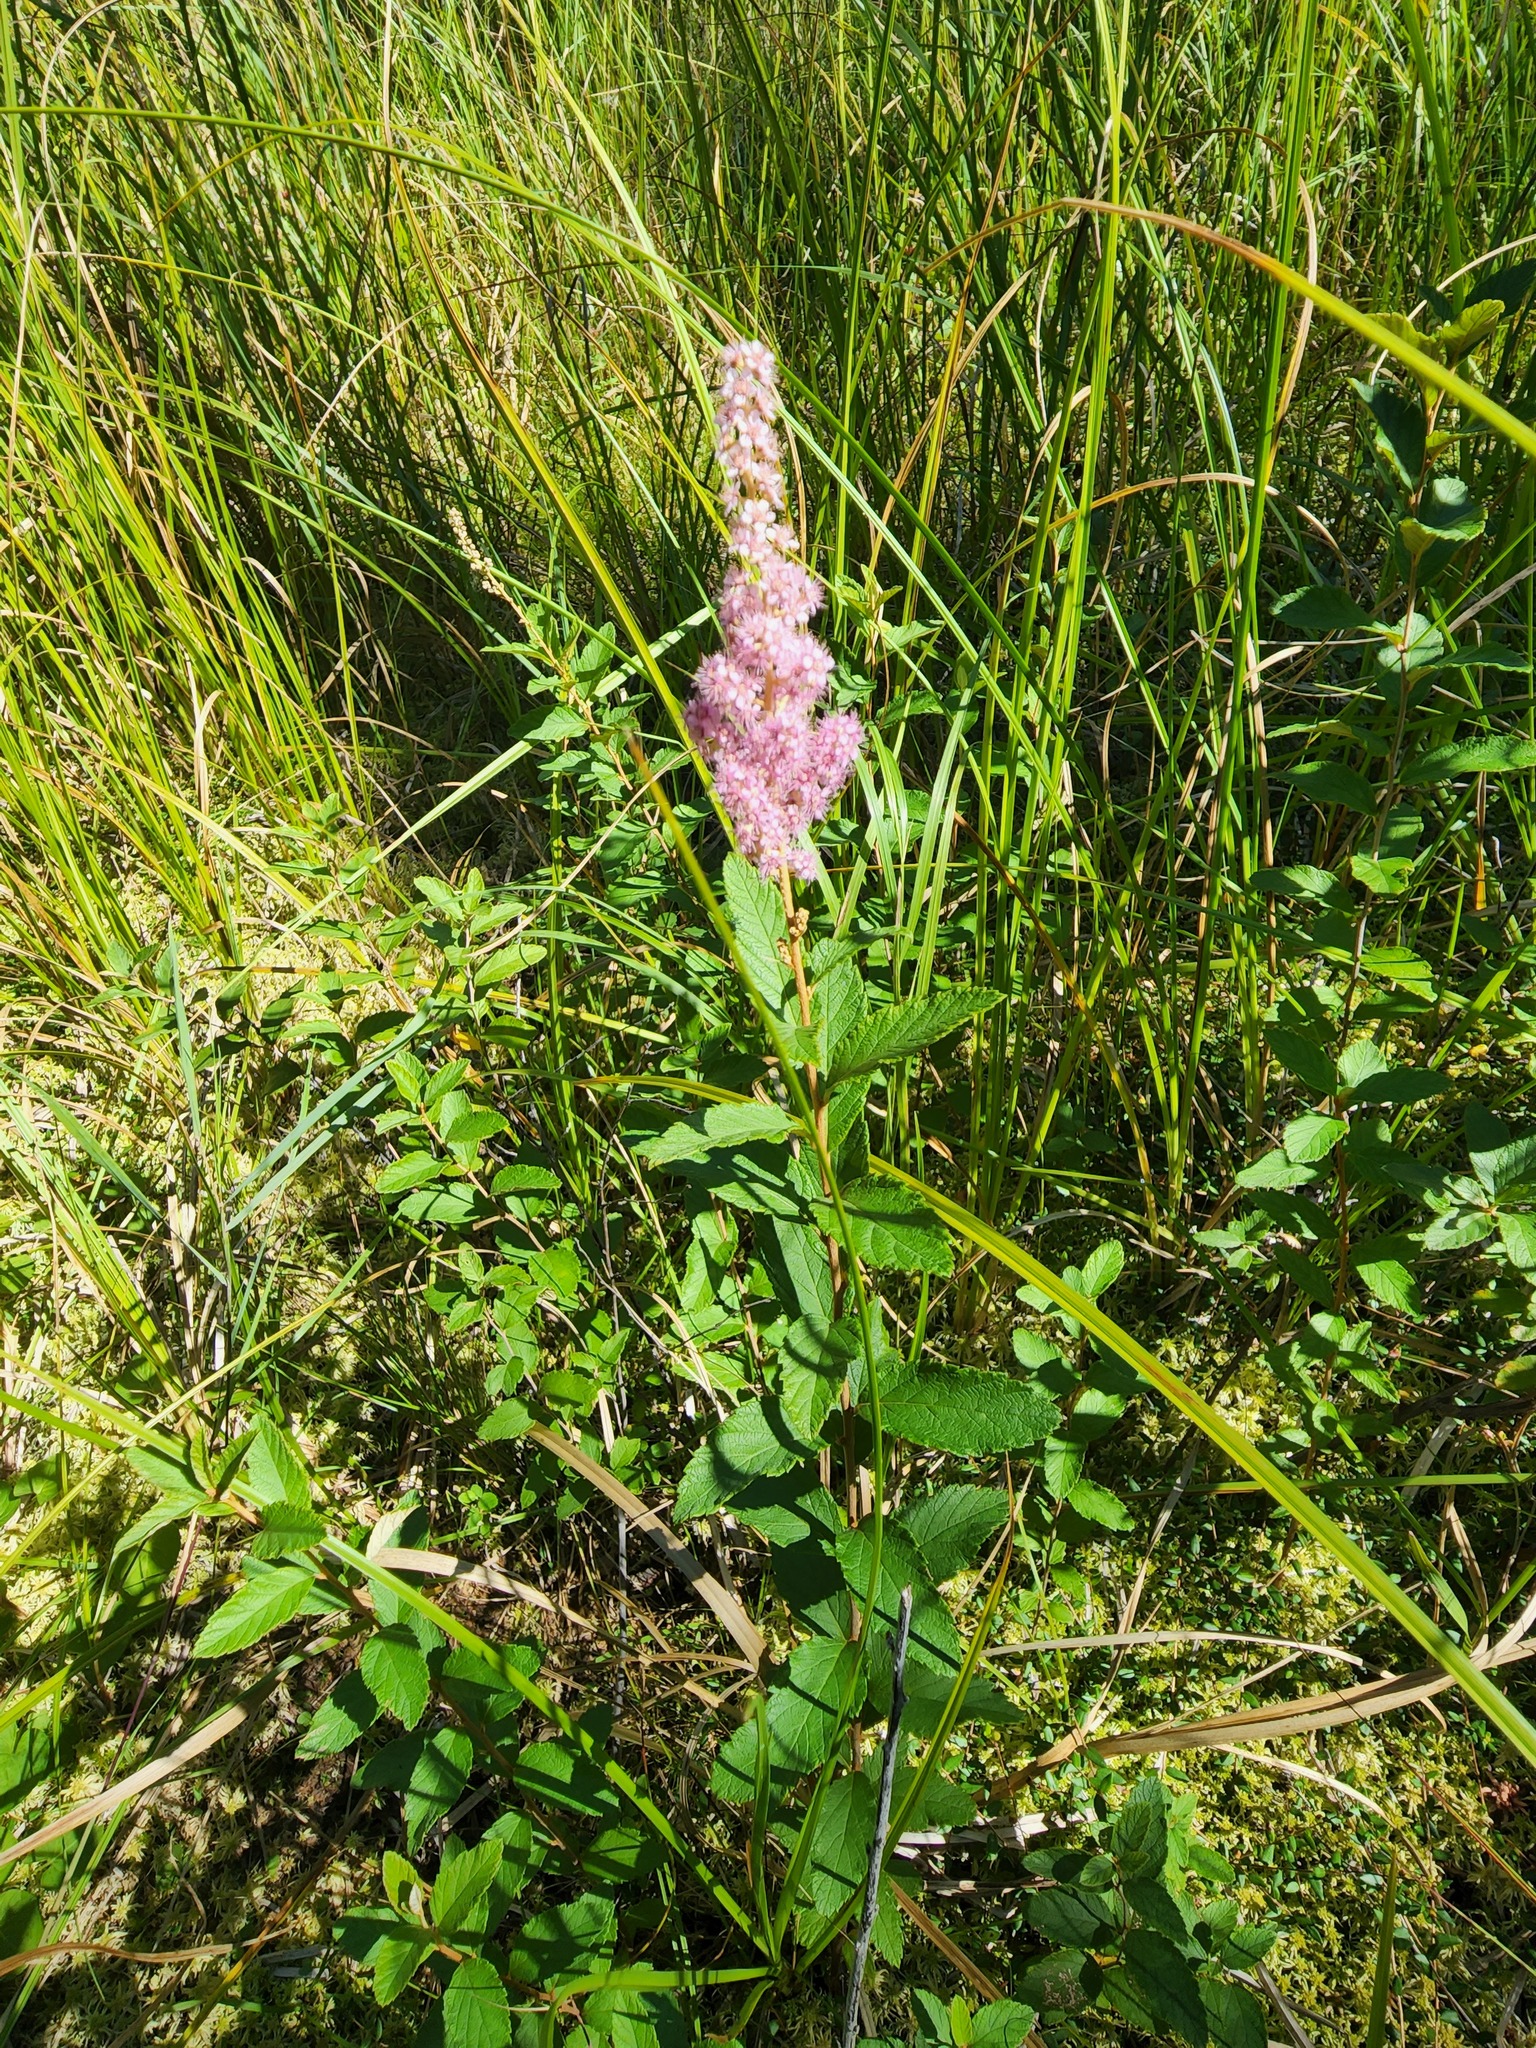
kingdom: Plantae
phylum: Tracheophyta
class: Magnoliopsida
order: Rosales
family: Rosaceae
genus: Spiraea
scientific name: Spiraea tomentosa
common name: Hardhack
